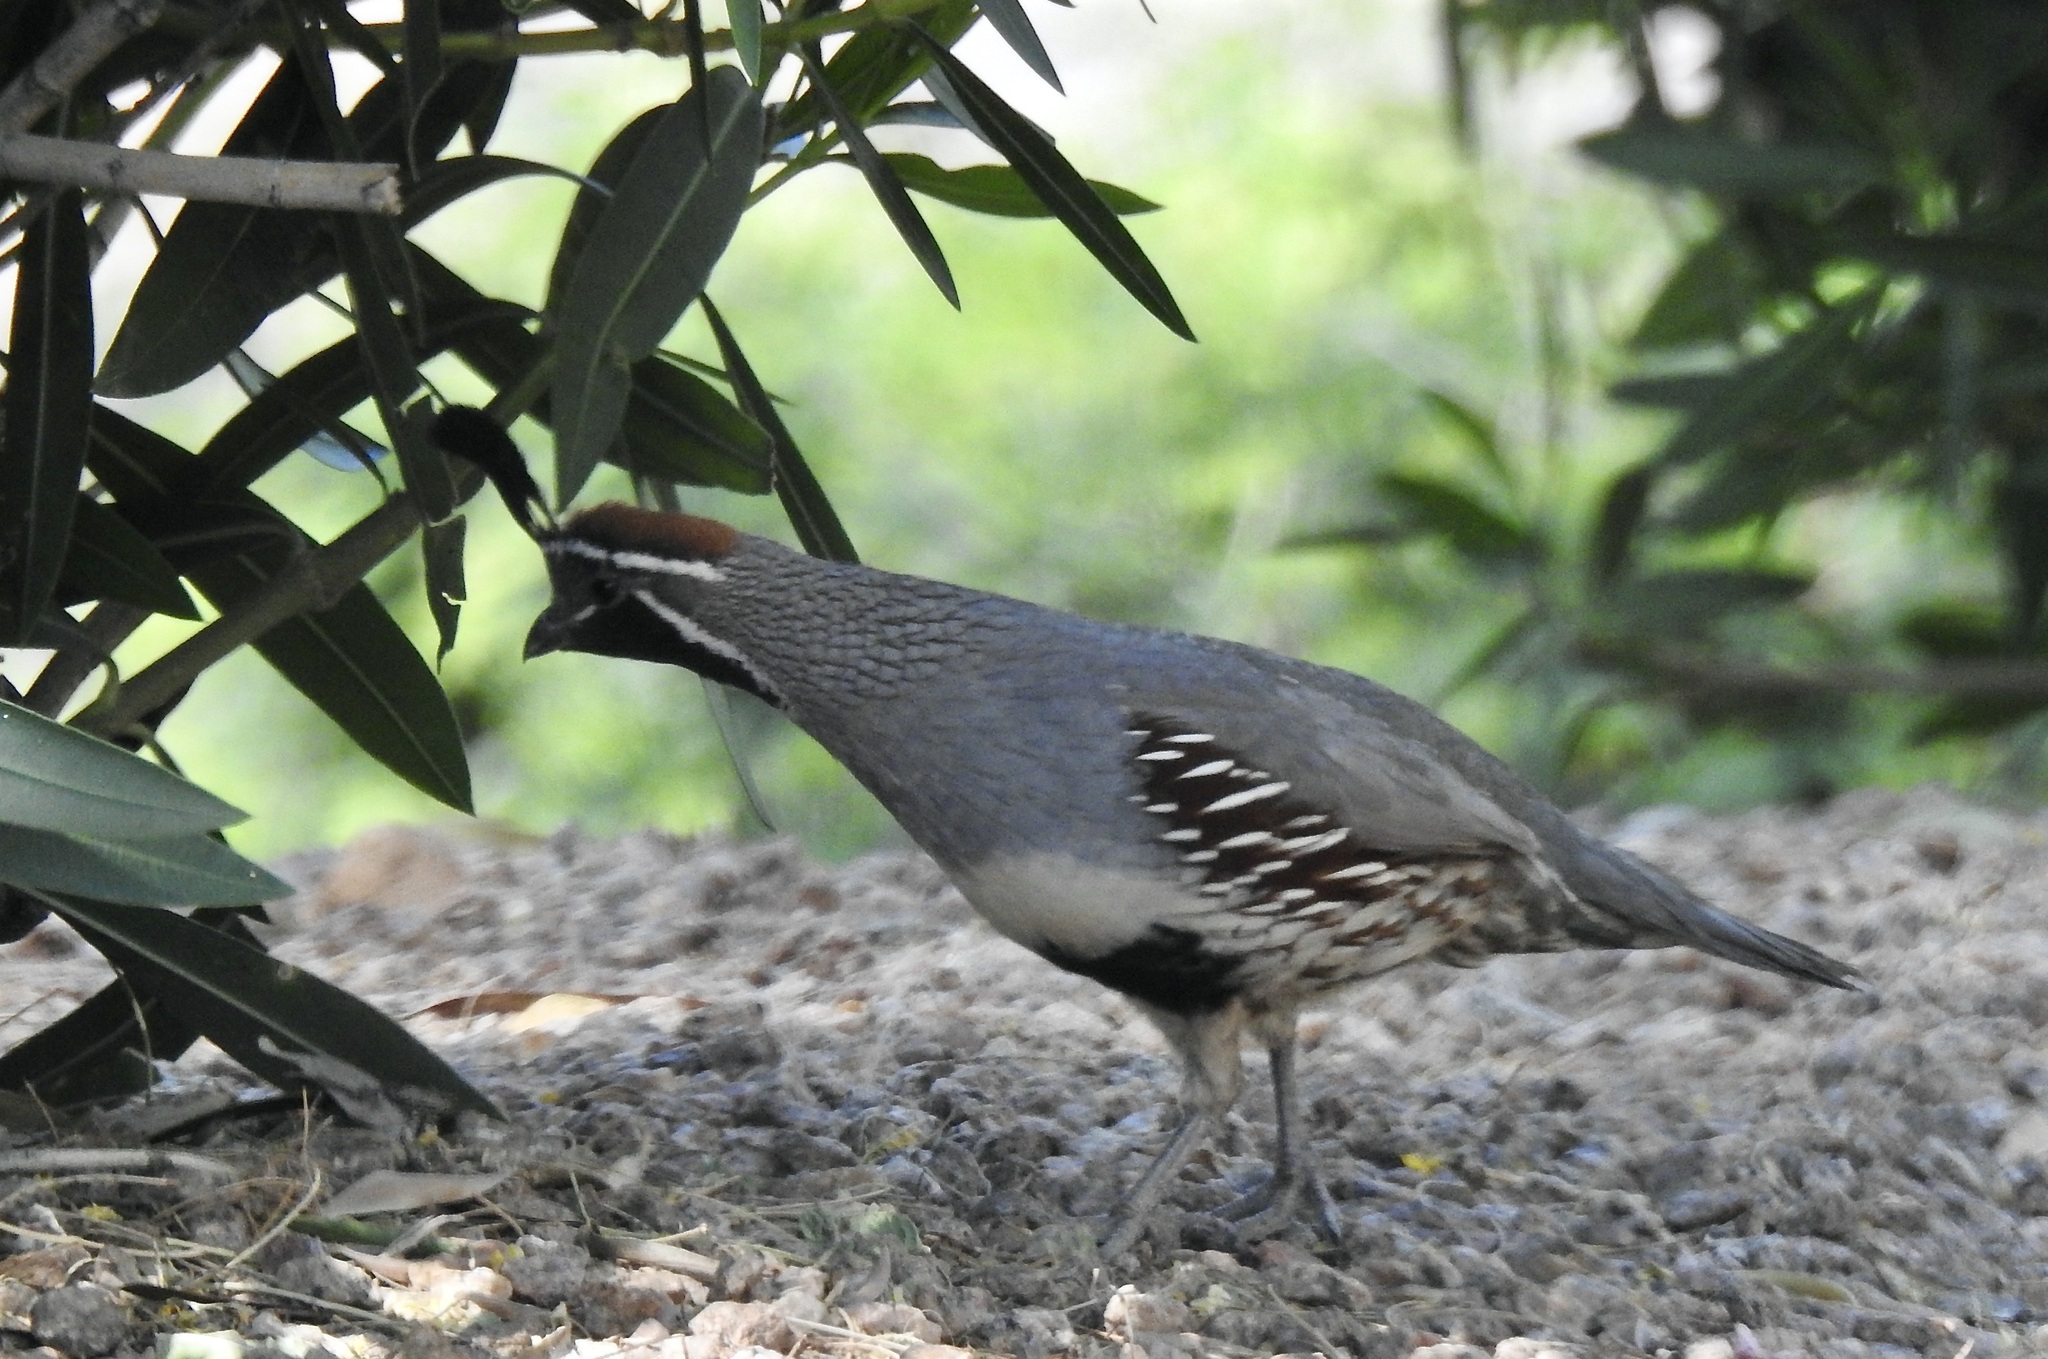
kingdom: Animalia
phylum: Chordata
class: Aves
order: Galliformes
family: Odontophoridae
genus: Callipepla
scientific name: Callipepla gambelii
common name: Gambel's quail
